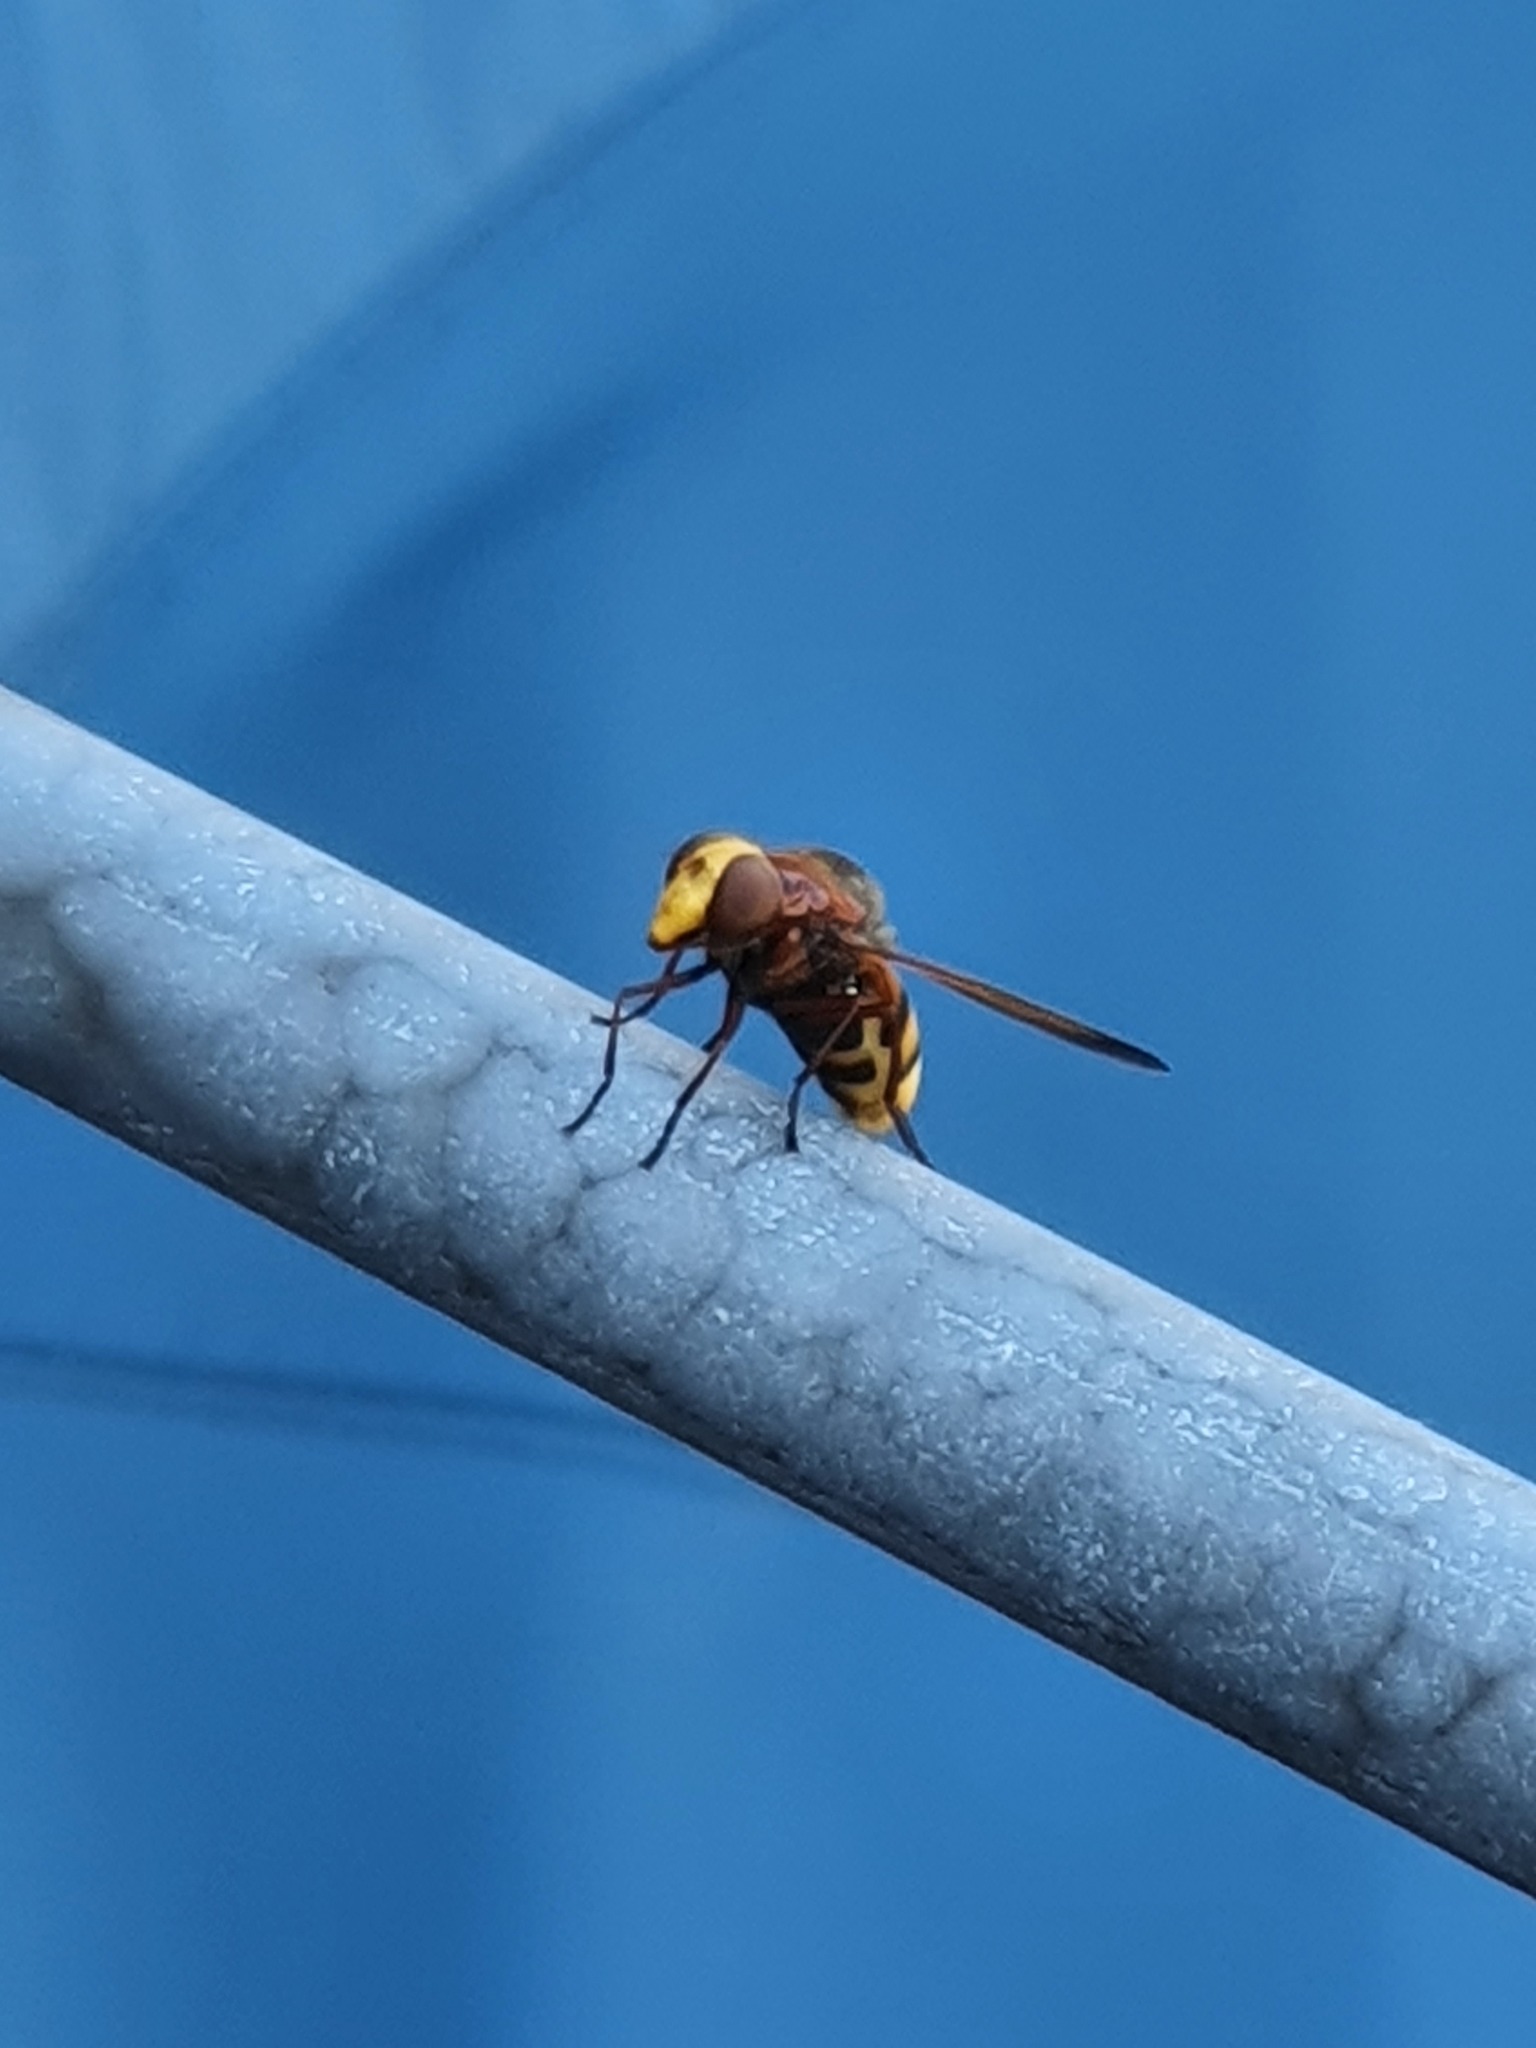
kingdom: Animalia
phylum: Arthropoda
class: Insecta
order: Diptera
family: Syrphidae
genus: Volucella
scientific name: Volucella zonaria
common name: Hornet hoverfly
